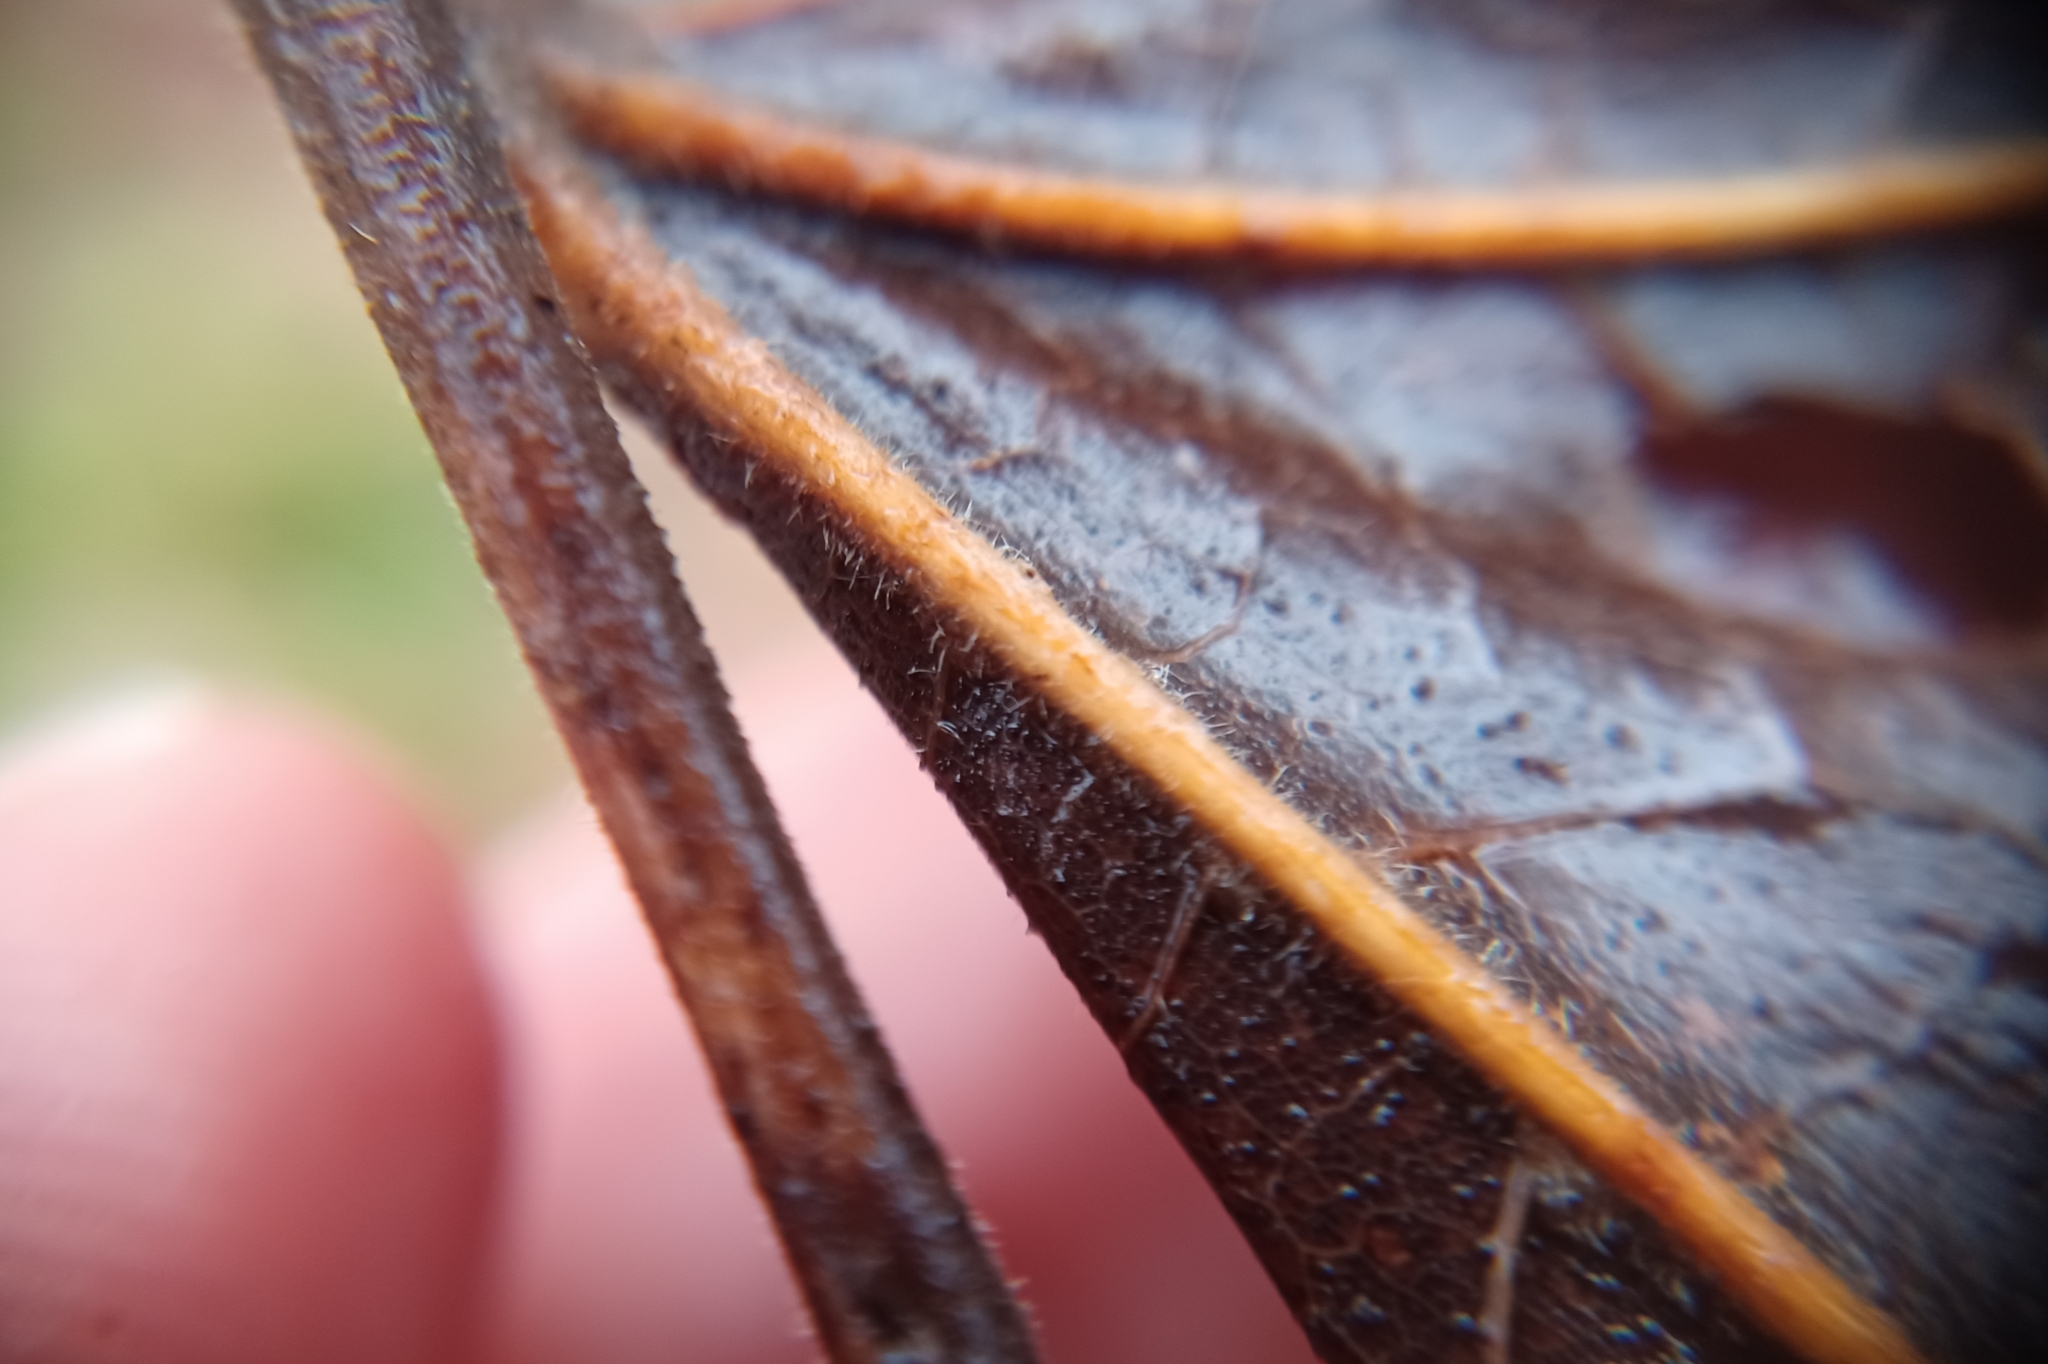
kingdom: Plantae
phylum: Tracheophyta
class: Magnoliopsida
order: Sapindales
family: Sapindaceae
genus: Acer
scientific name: Acer nigrum
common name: Black maple
